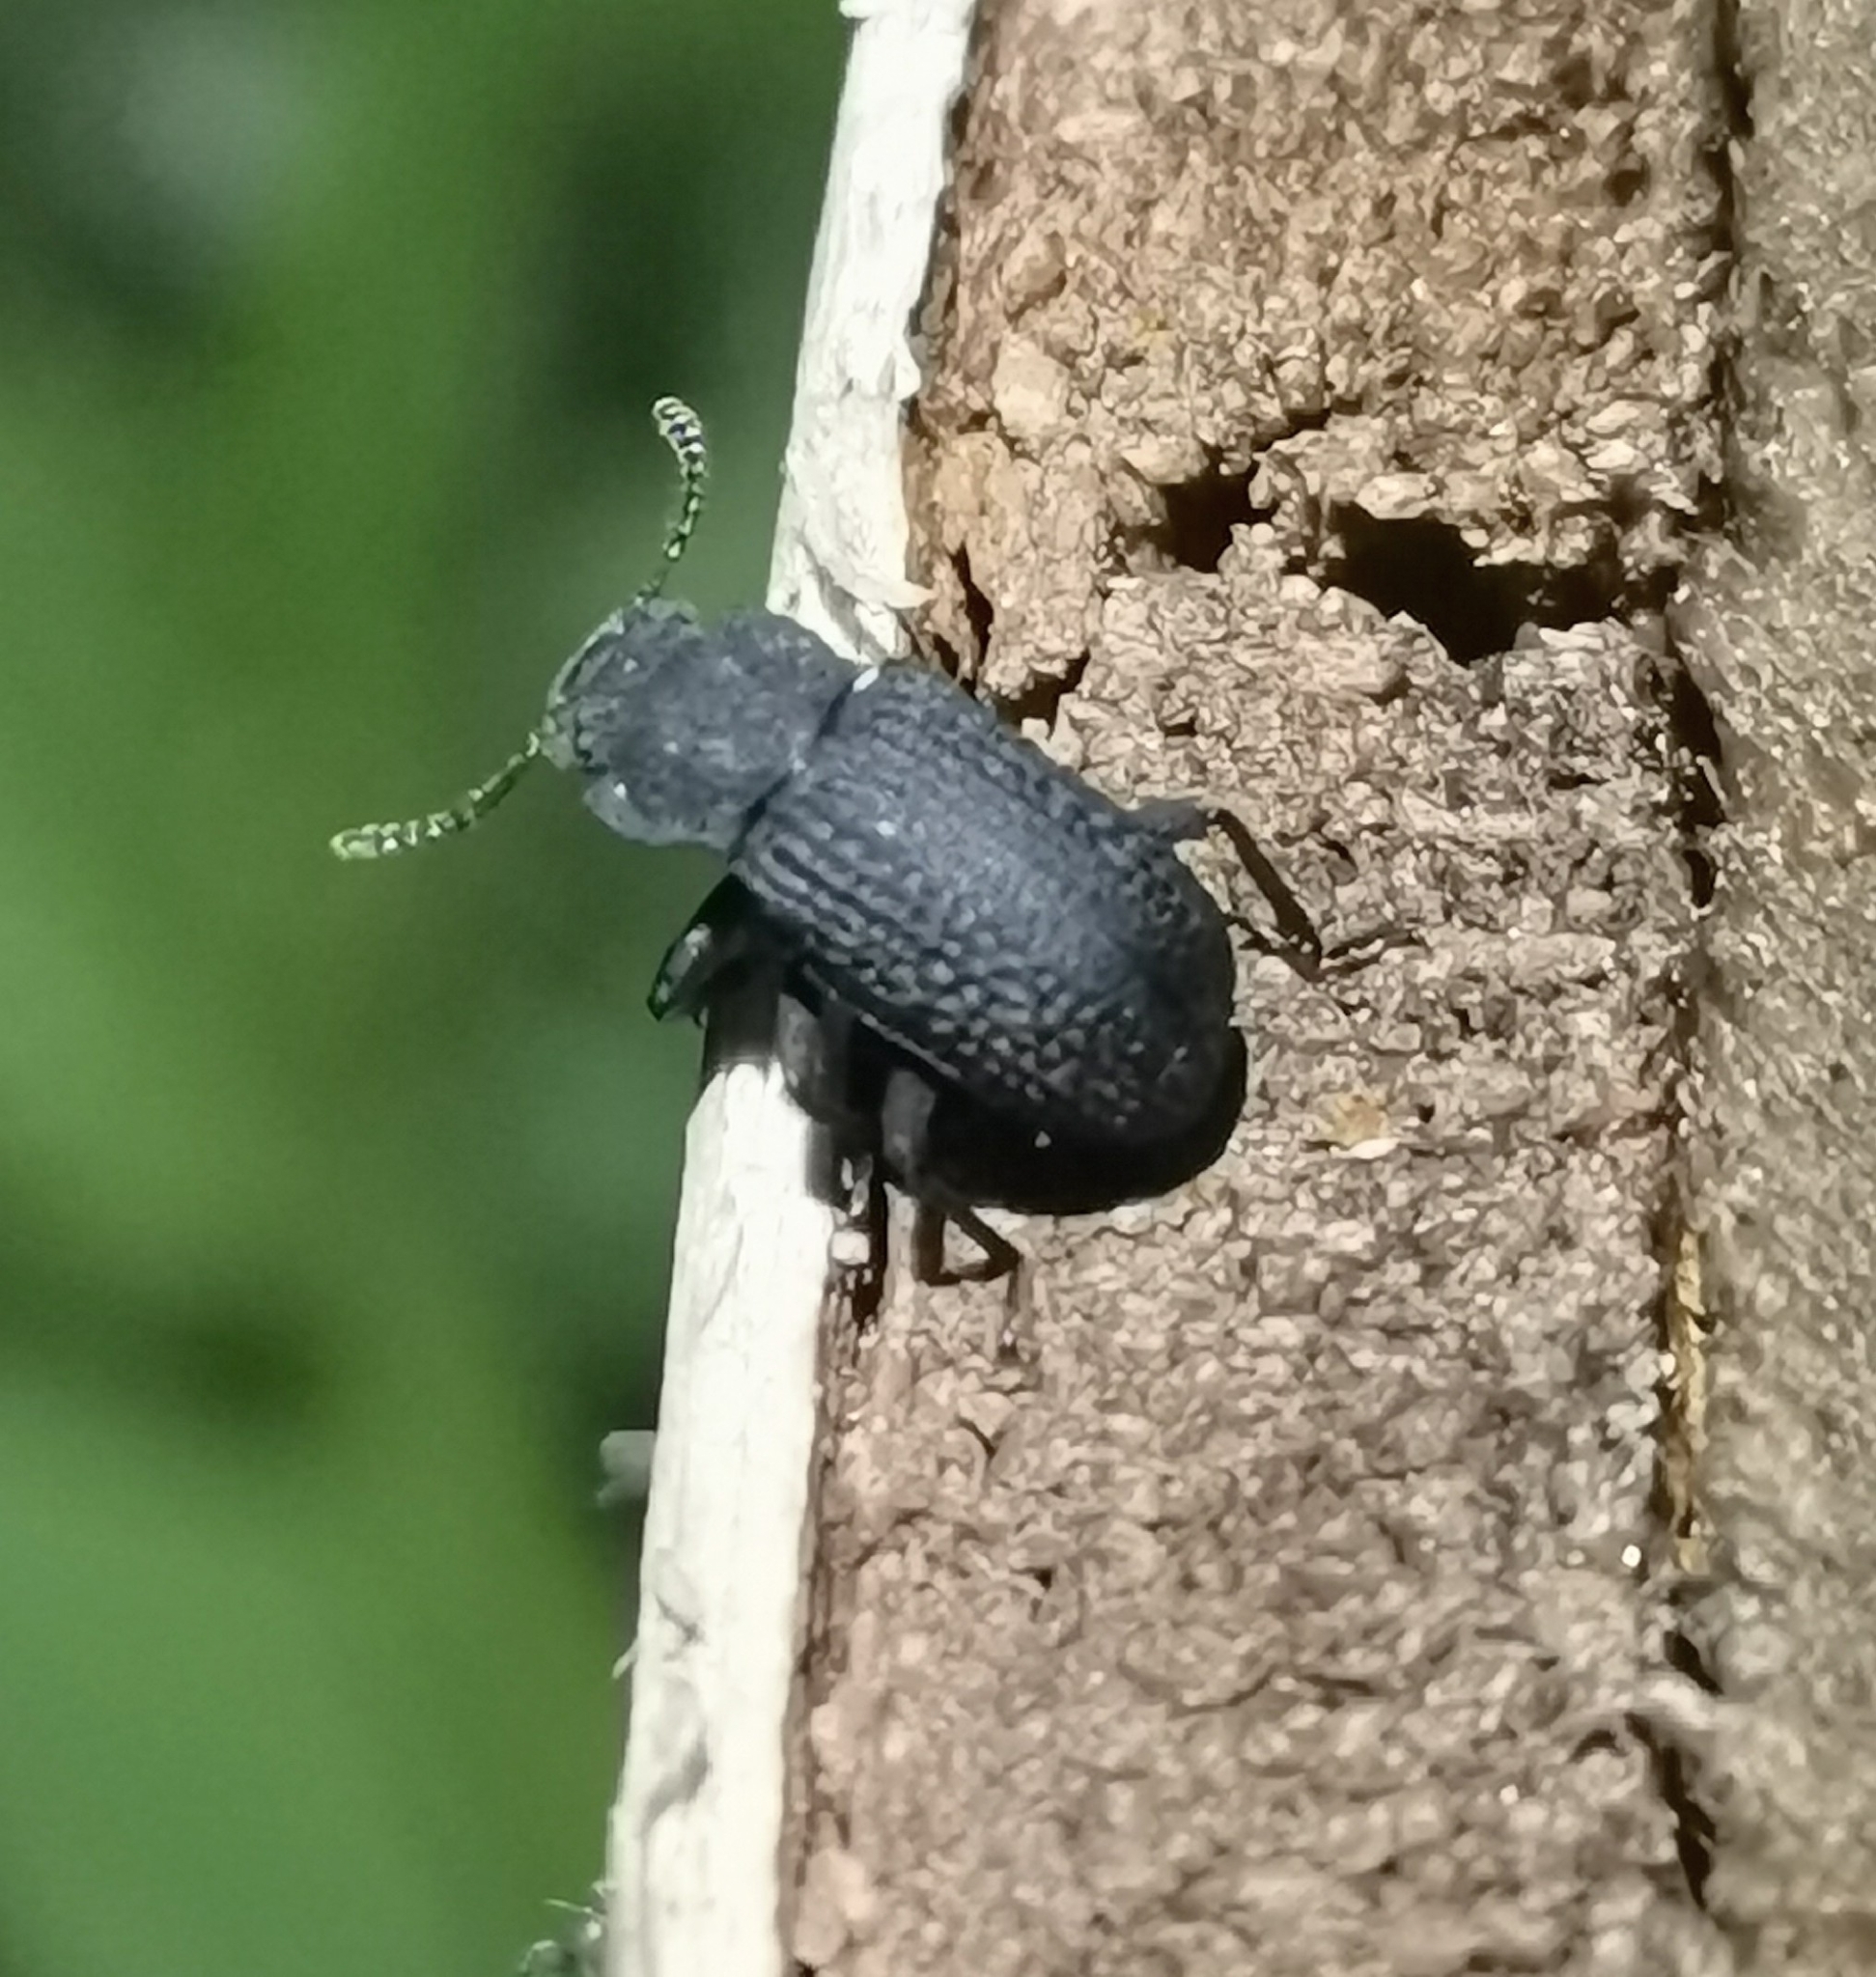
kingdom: Animalia
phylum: Arthropoda
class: Insecta
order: Coleoptera
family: Tenebrionidae
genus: Bolitophagus
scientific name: Bolitophagus reticulatus
